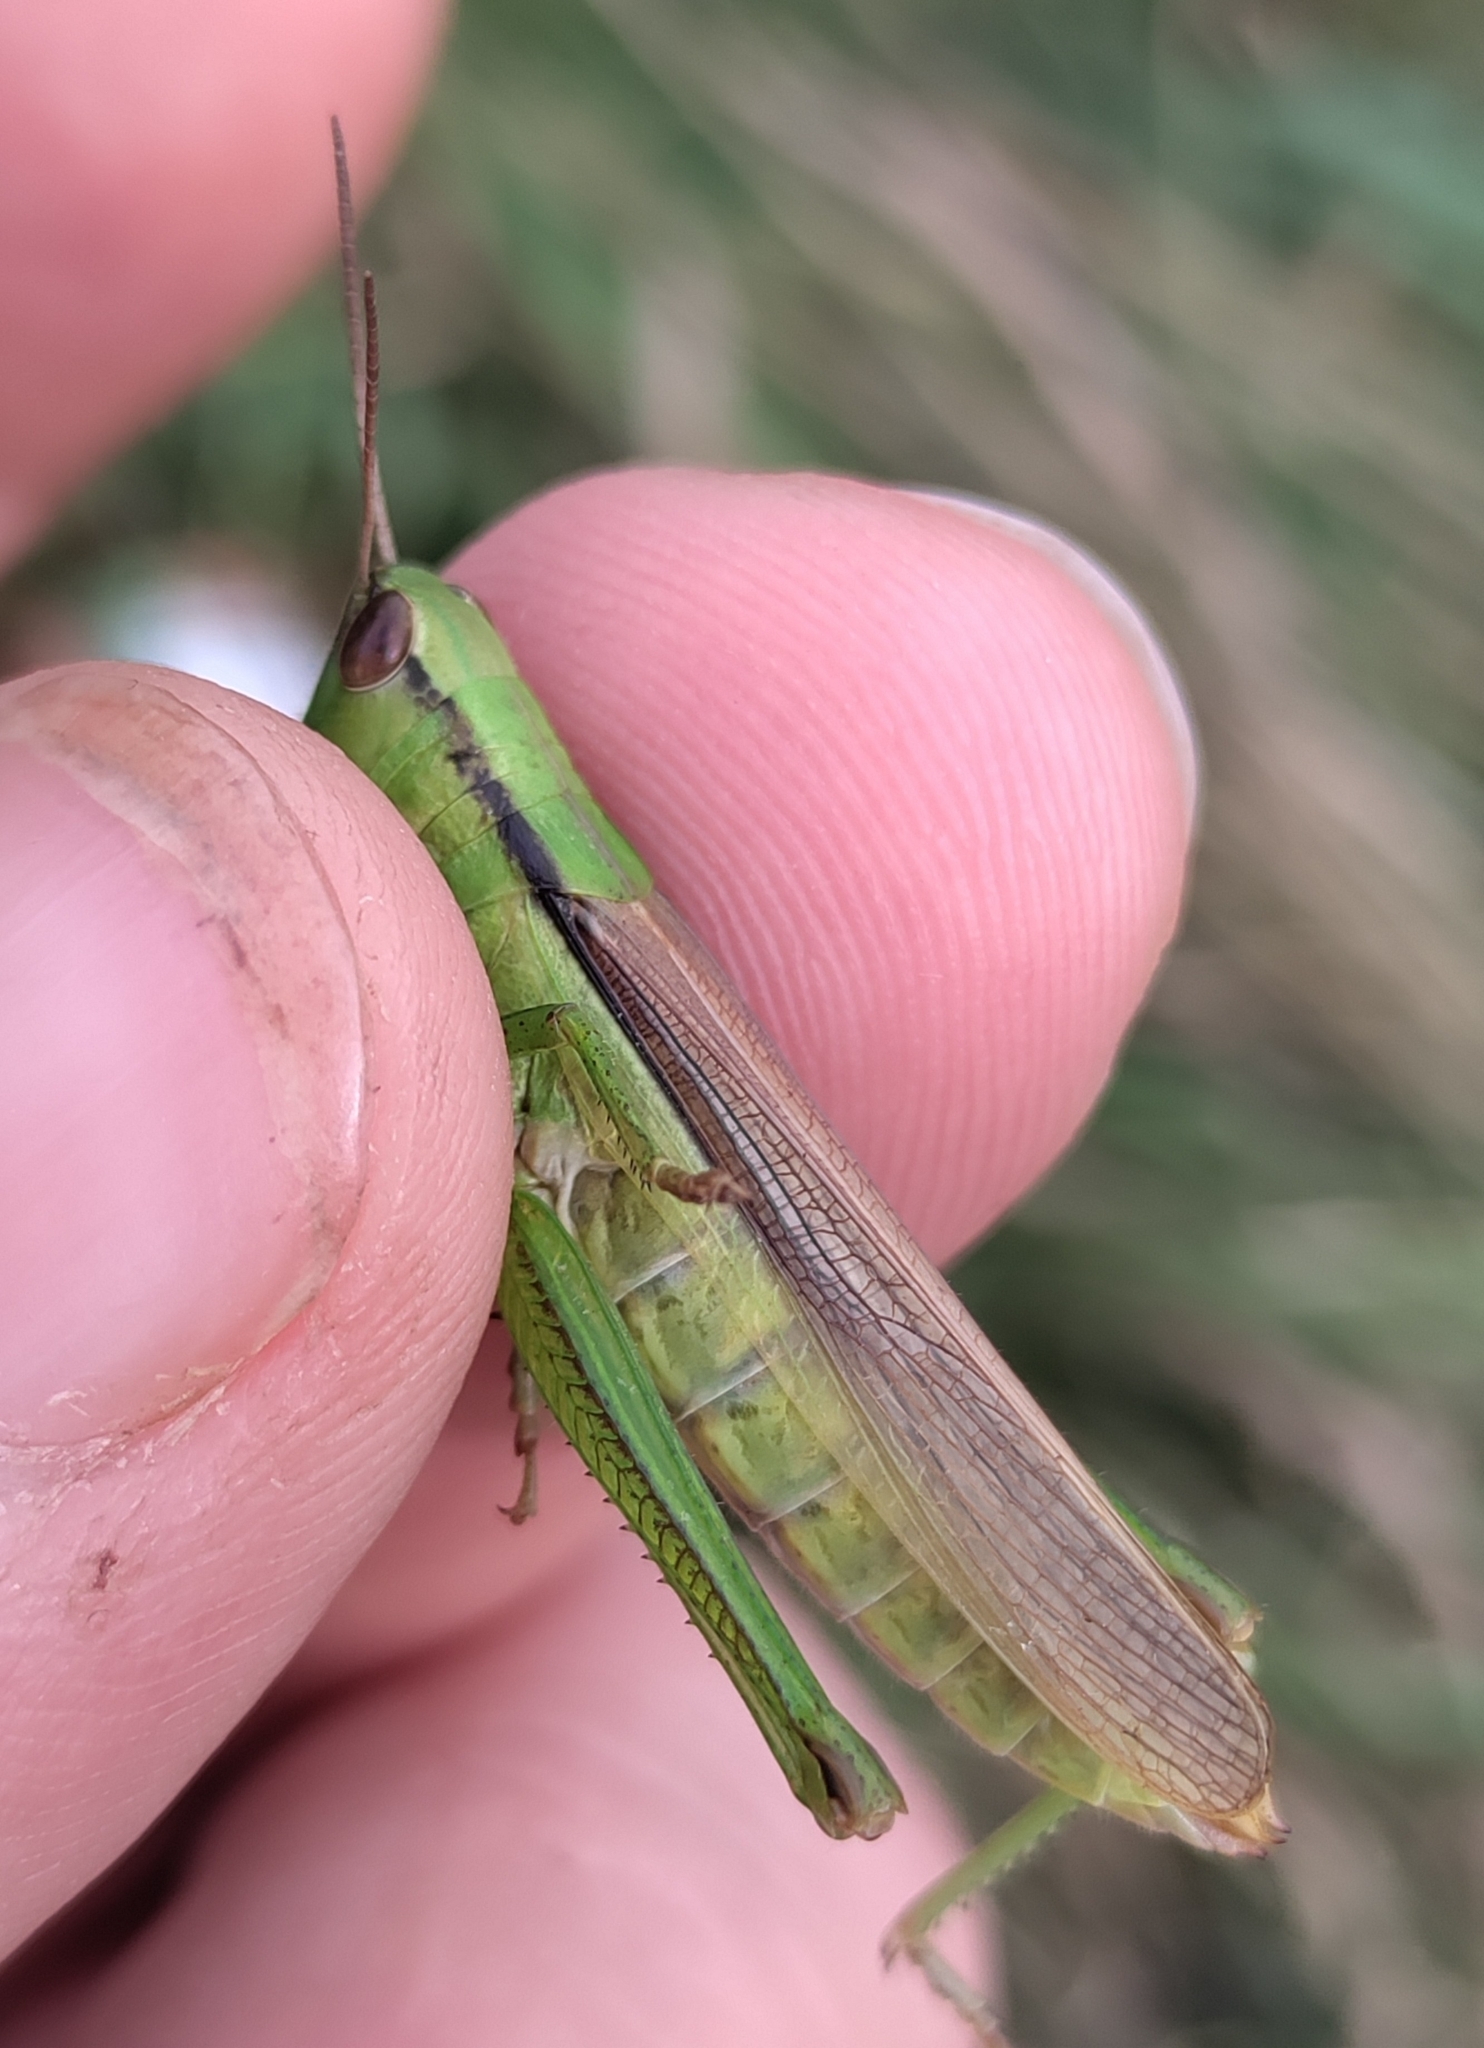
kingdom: Animalia
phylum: Arthropoda
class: Insecta
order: Orthoptera
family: Acrididae
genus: Mecostethus
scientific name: Mecostethus parapleurus
